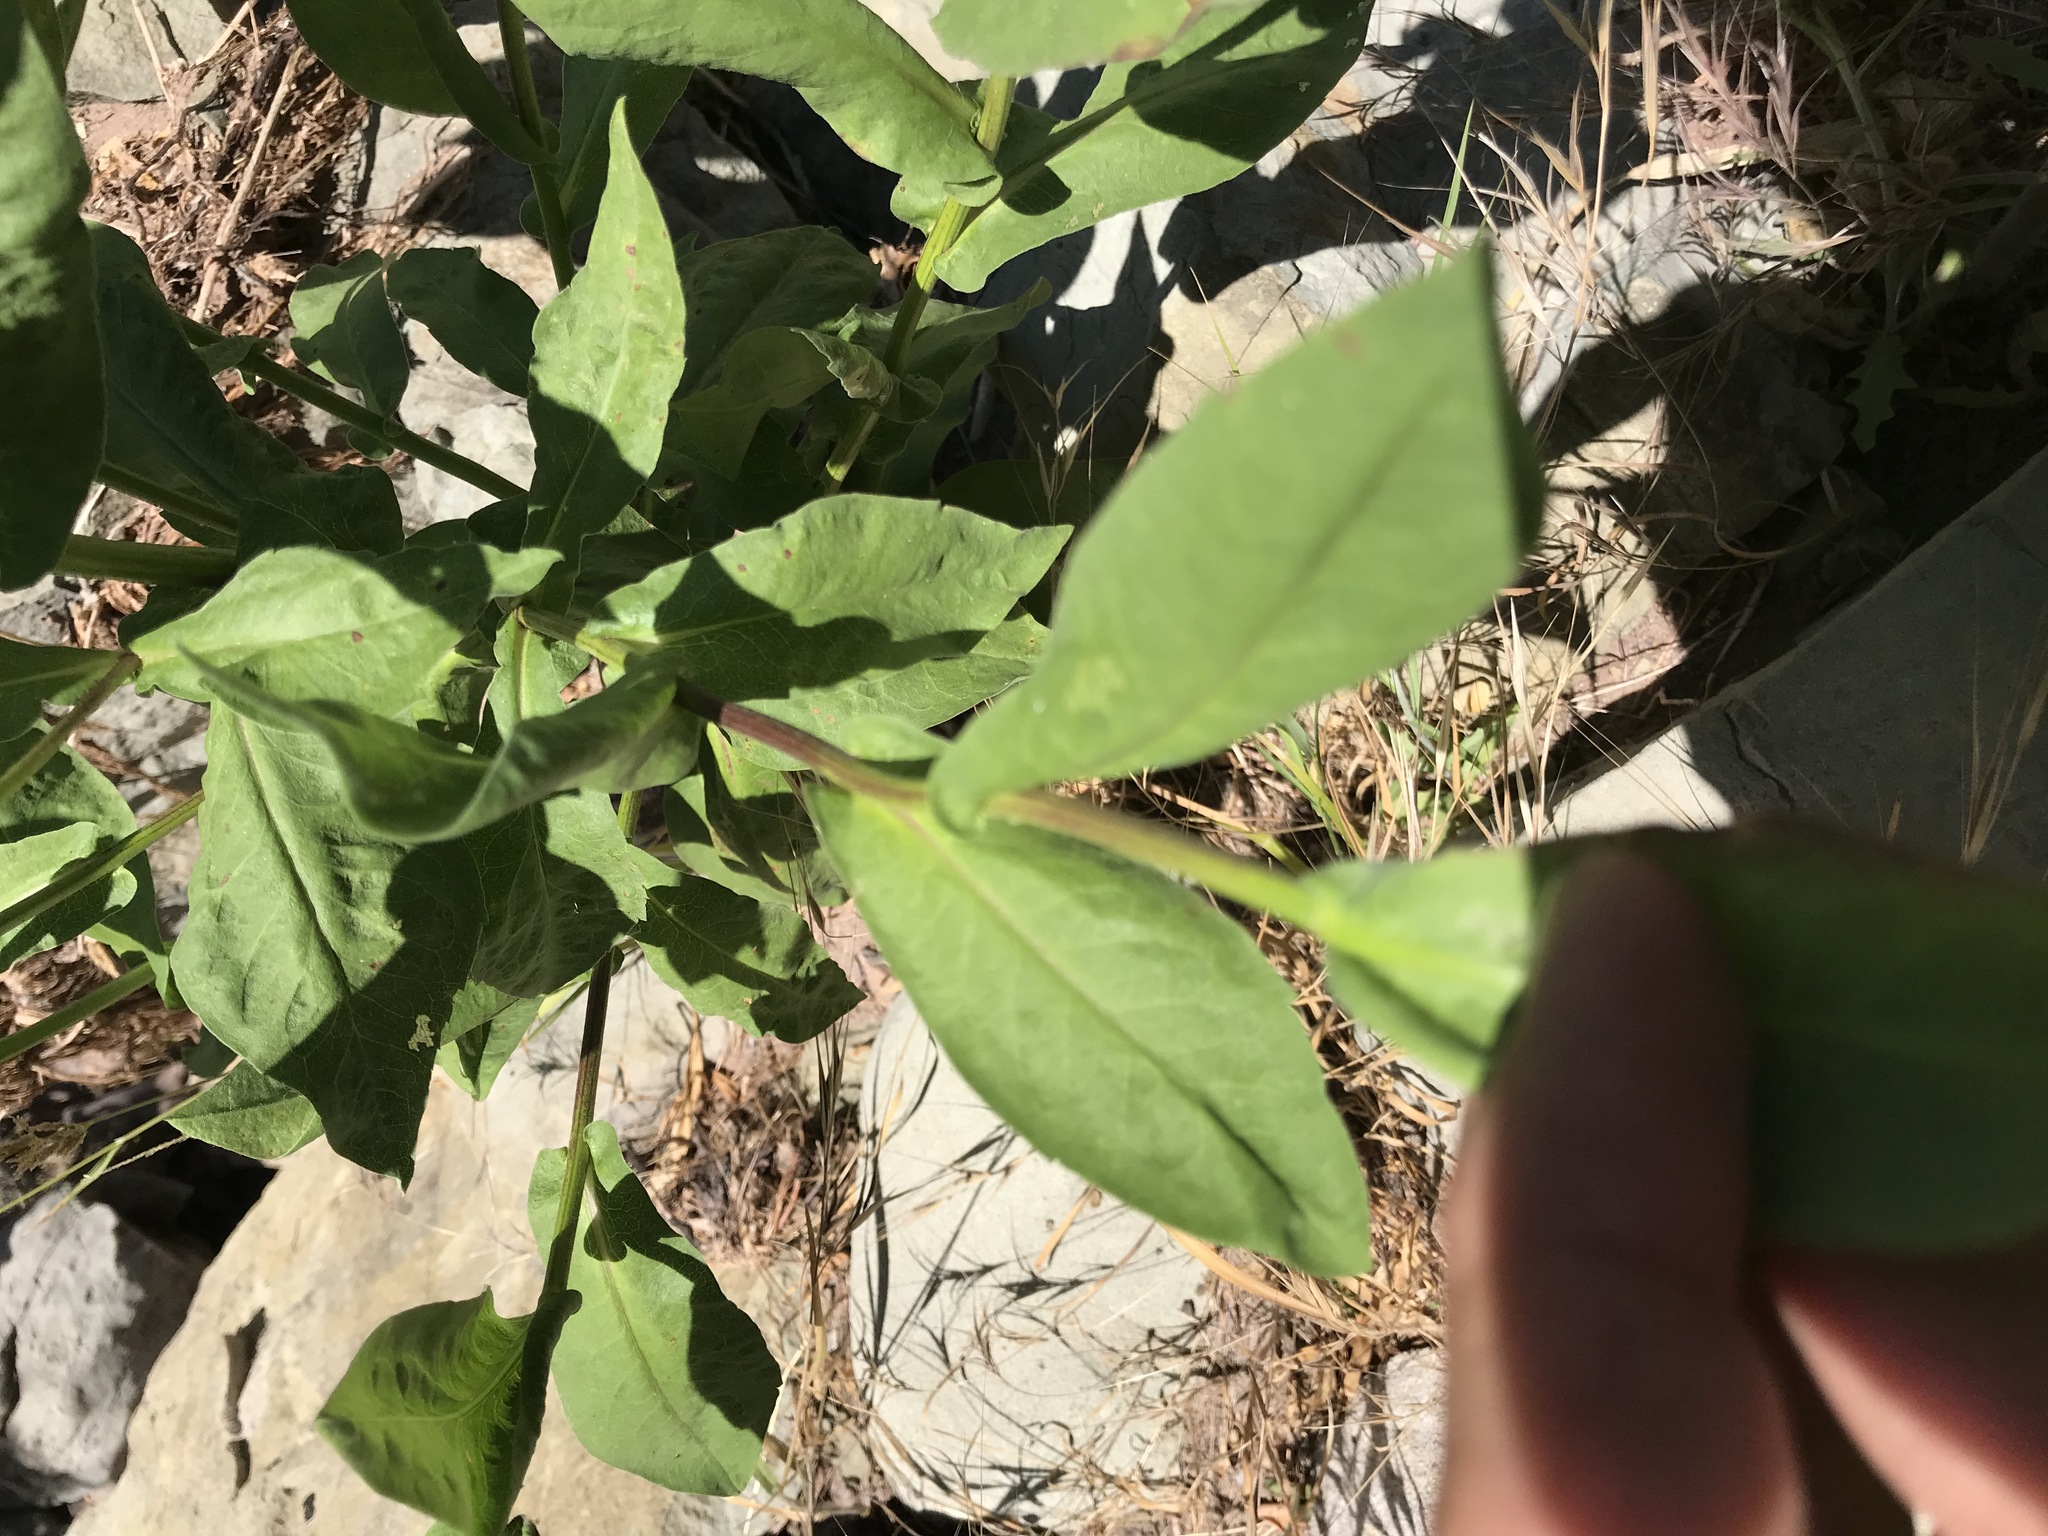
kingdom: Plantae
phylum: Tracheophyta
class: Magnoliopsida
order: Asterales
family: Asteraceae
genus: Symphyotrichum
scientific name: Symphyotrichum greatae
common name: Greata's aster
